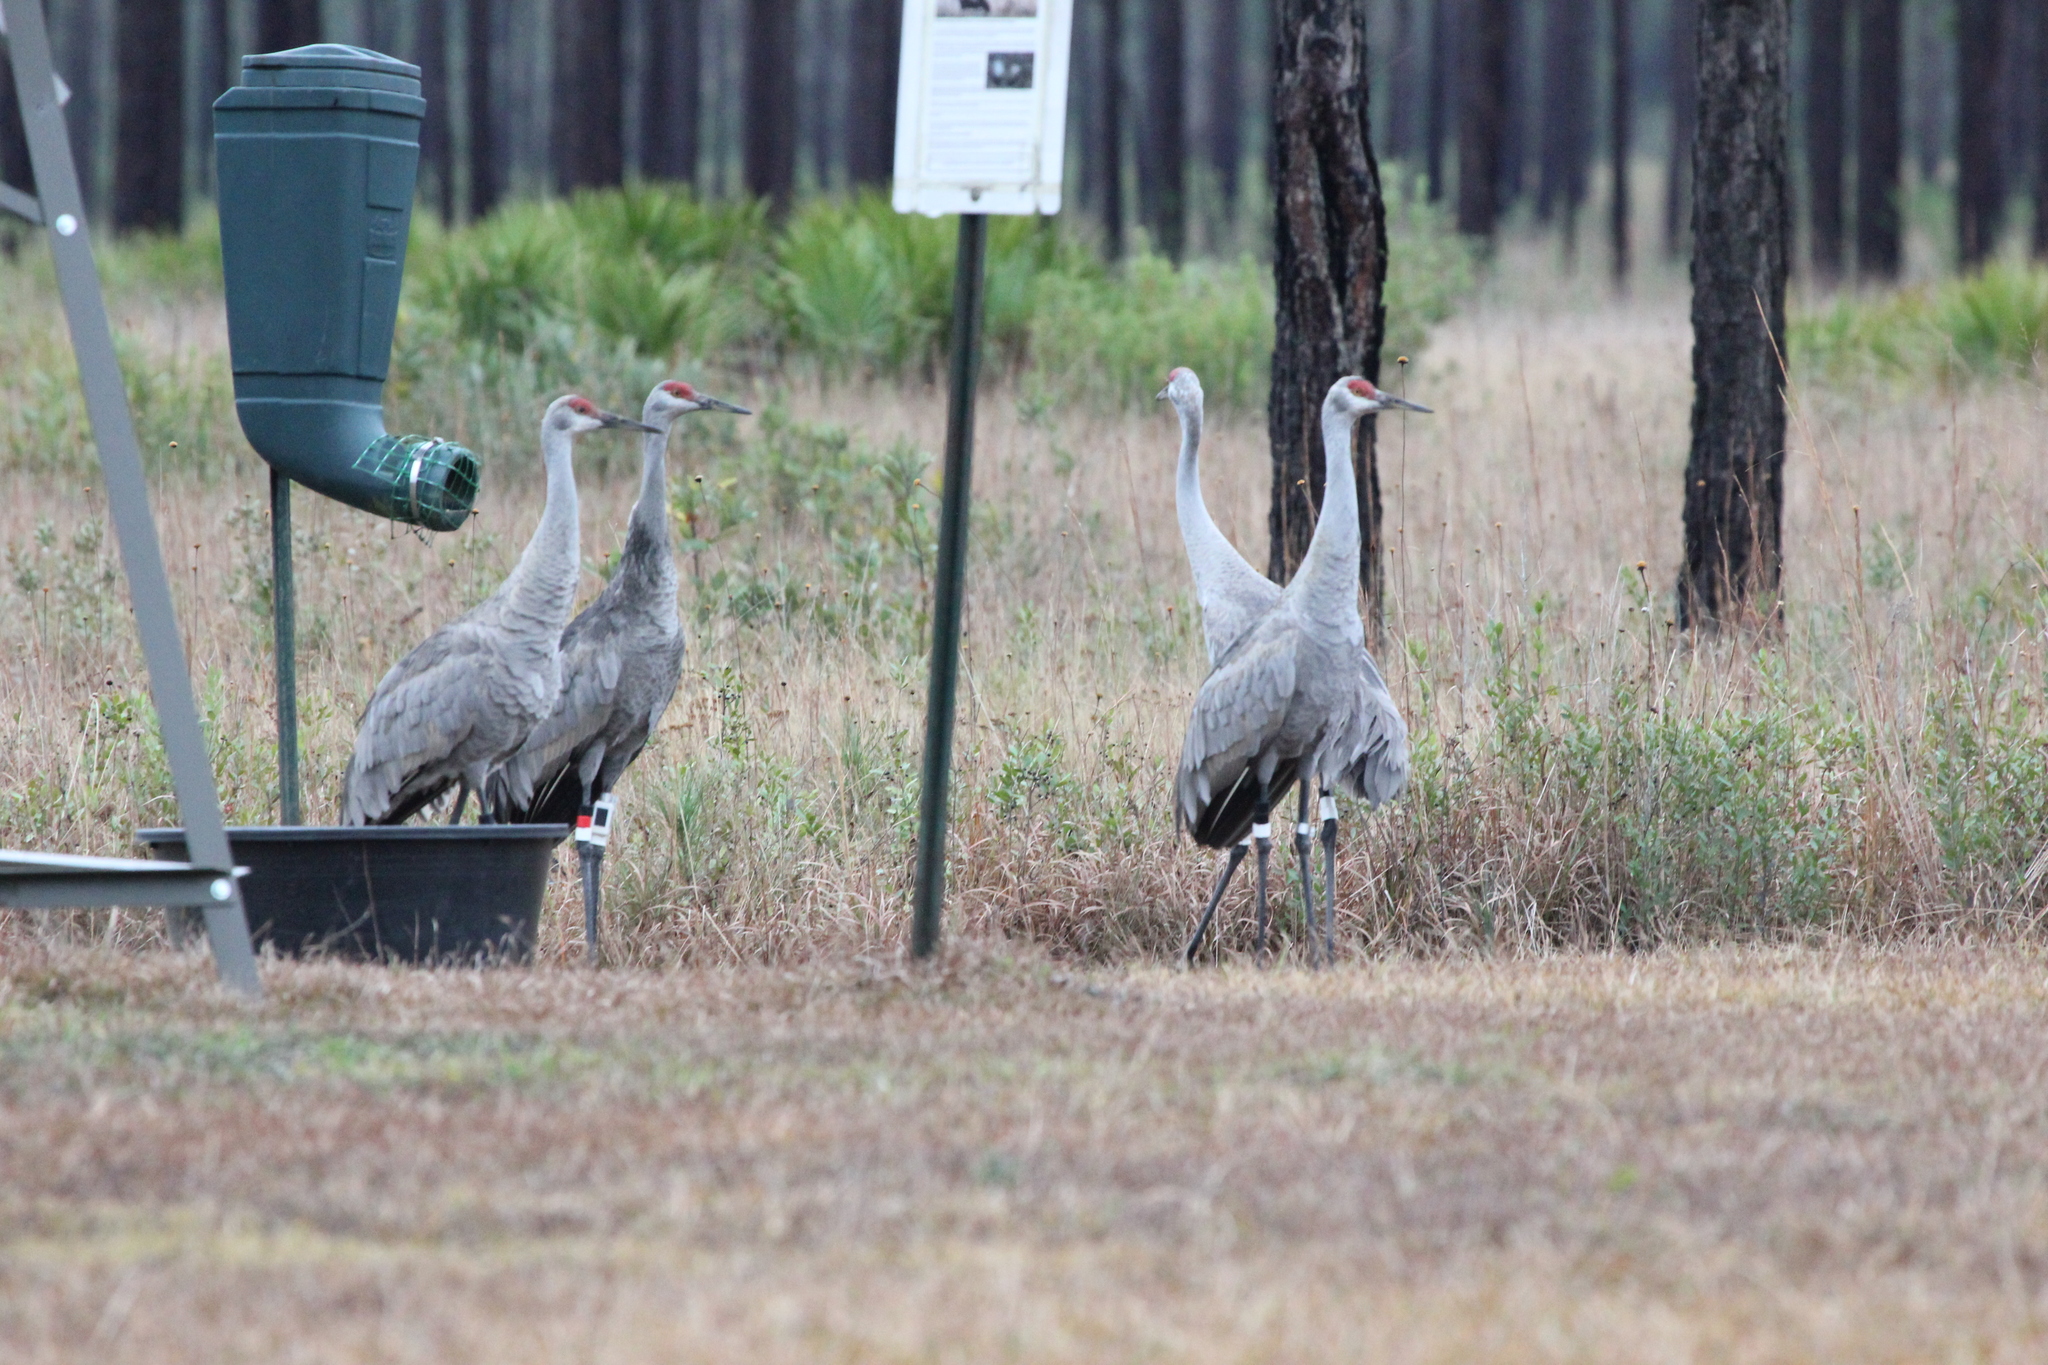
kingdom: Animalia
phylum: Chordata
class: Aves
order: Gruiformes
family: Gruidae
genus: Grus
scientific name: Grus canadensis
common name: Sandhill crane
